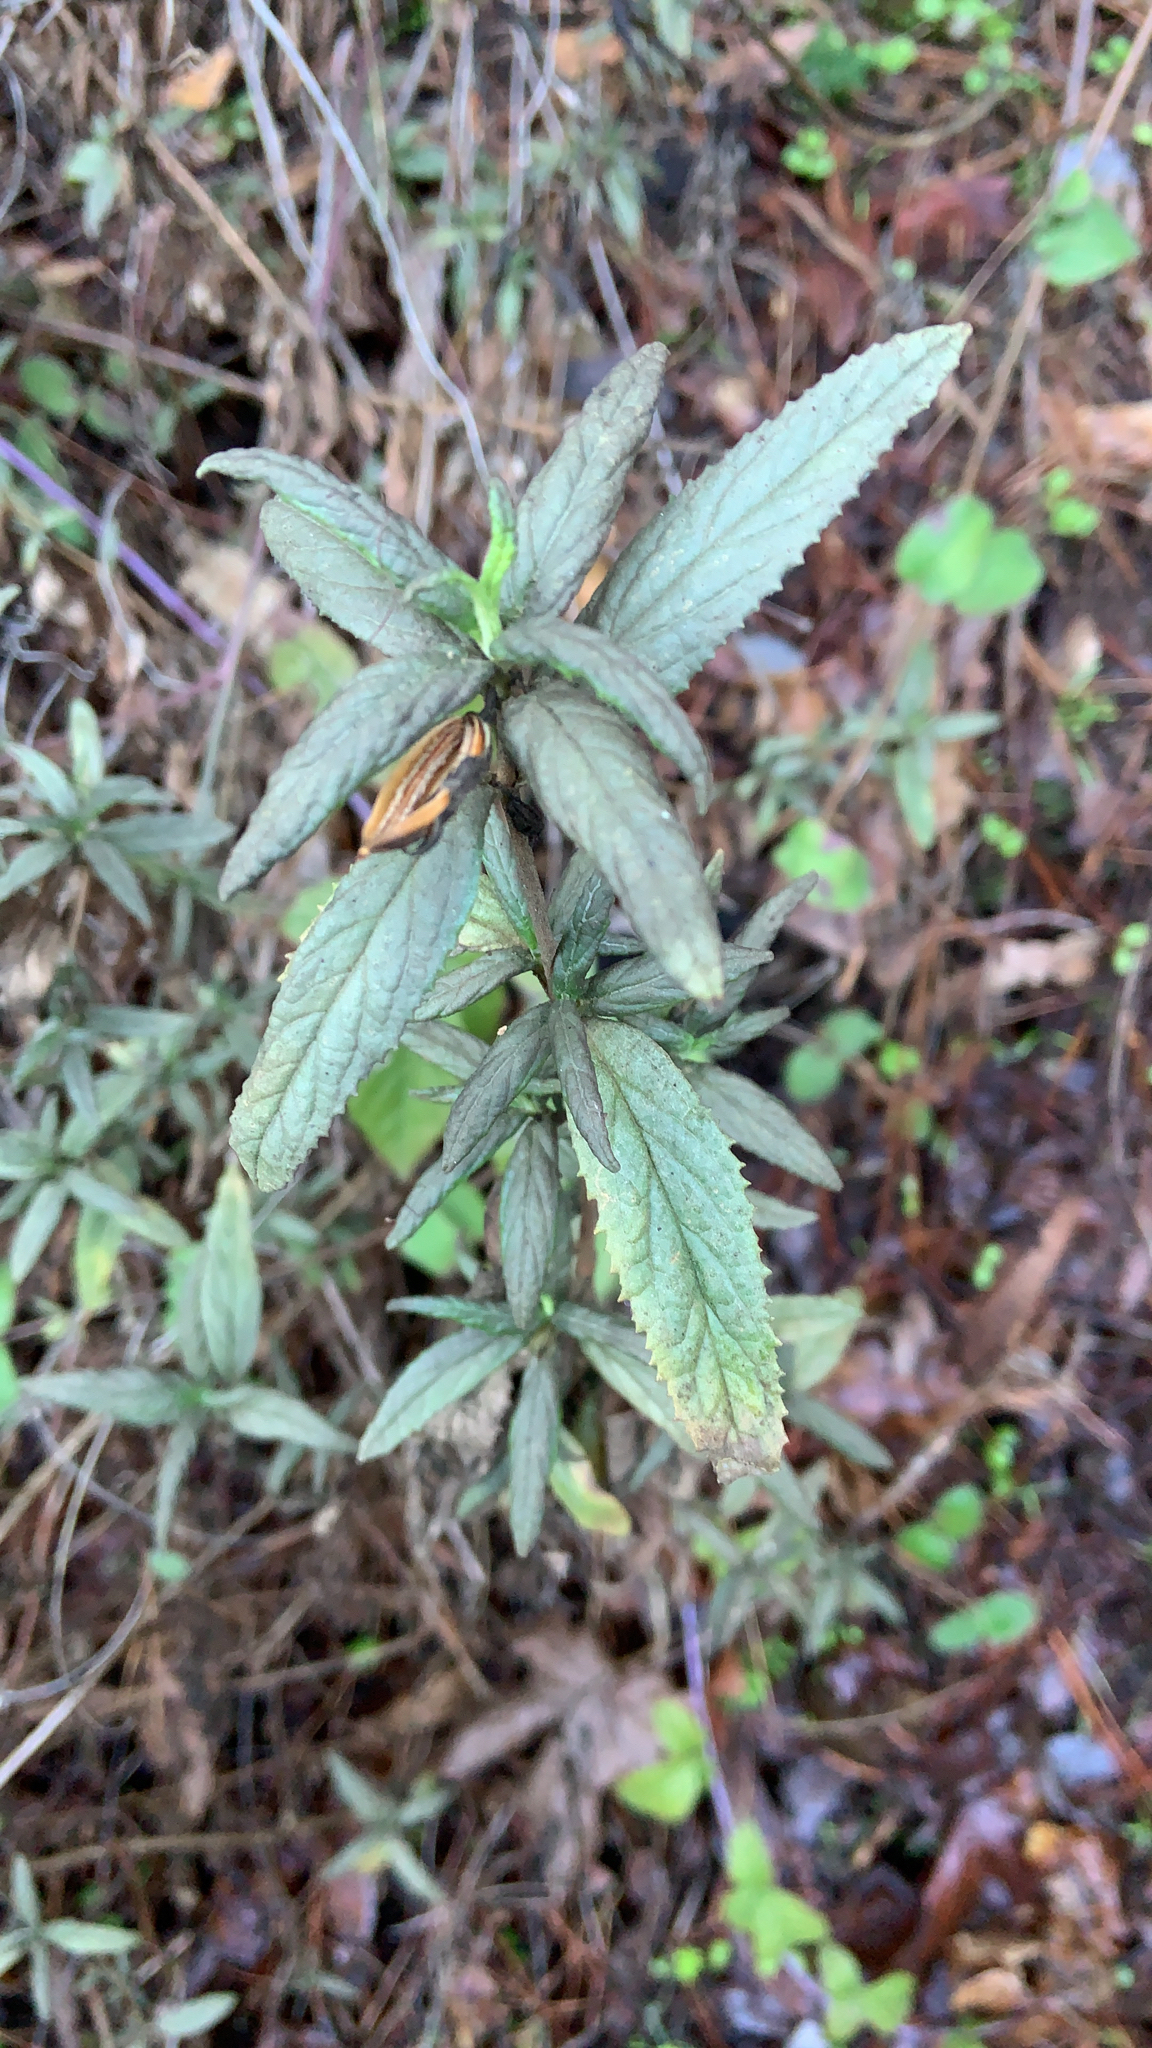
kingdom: Plantae
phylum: Tracheophyta
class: Magnoliopsida
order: Lamiales
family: Phrymaceae
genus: Diplacus
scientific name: Diplacus aurantiacus
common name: Bush monkey-flower
